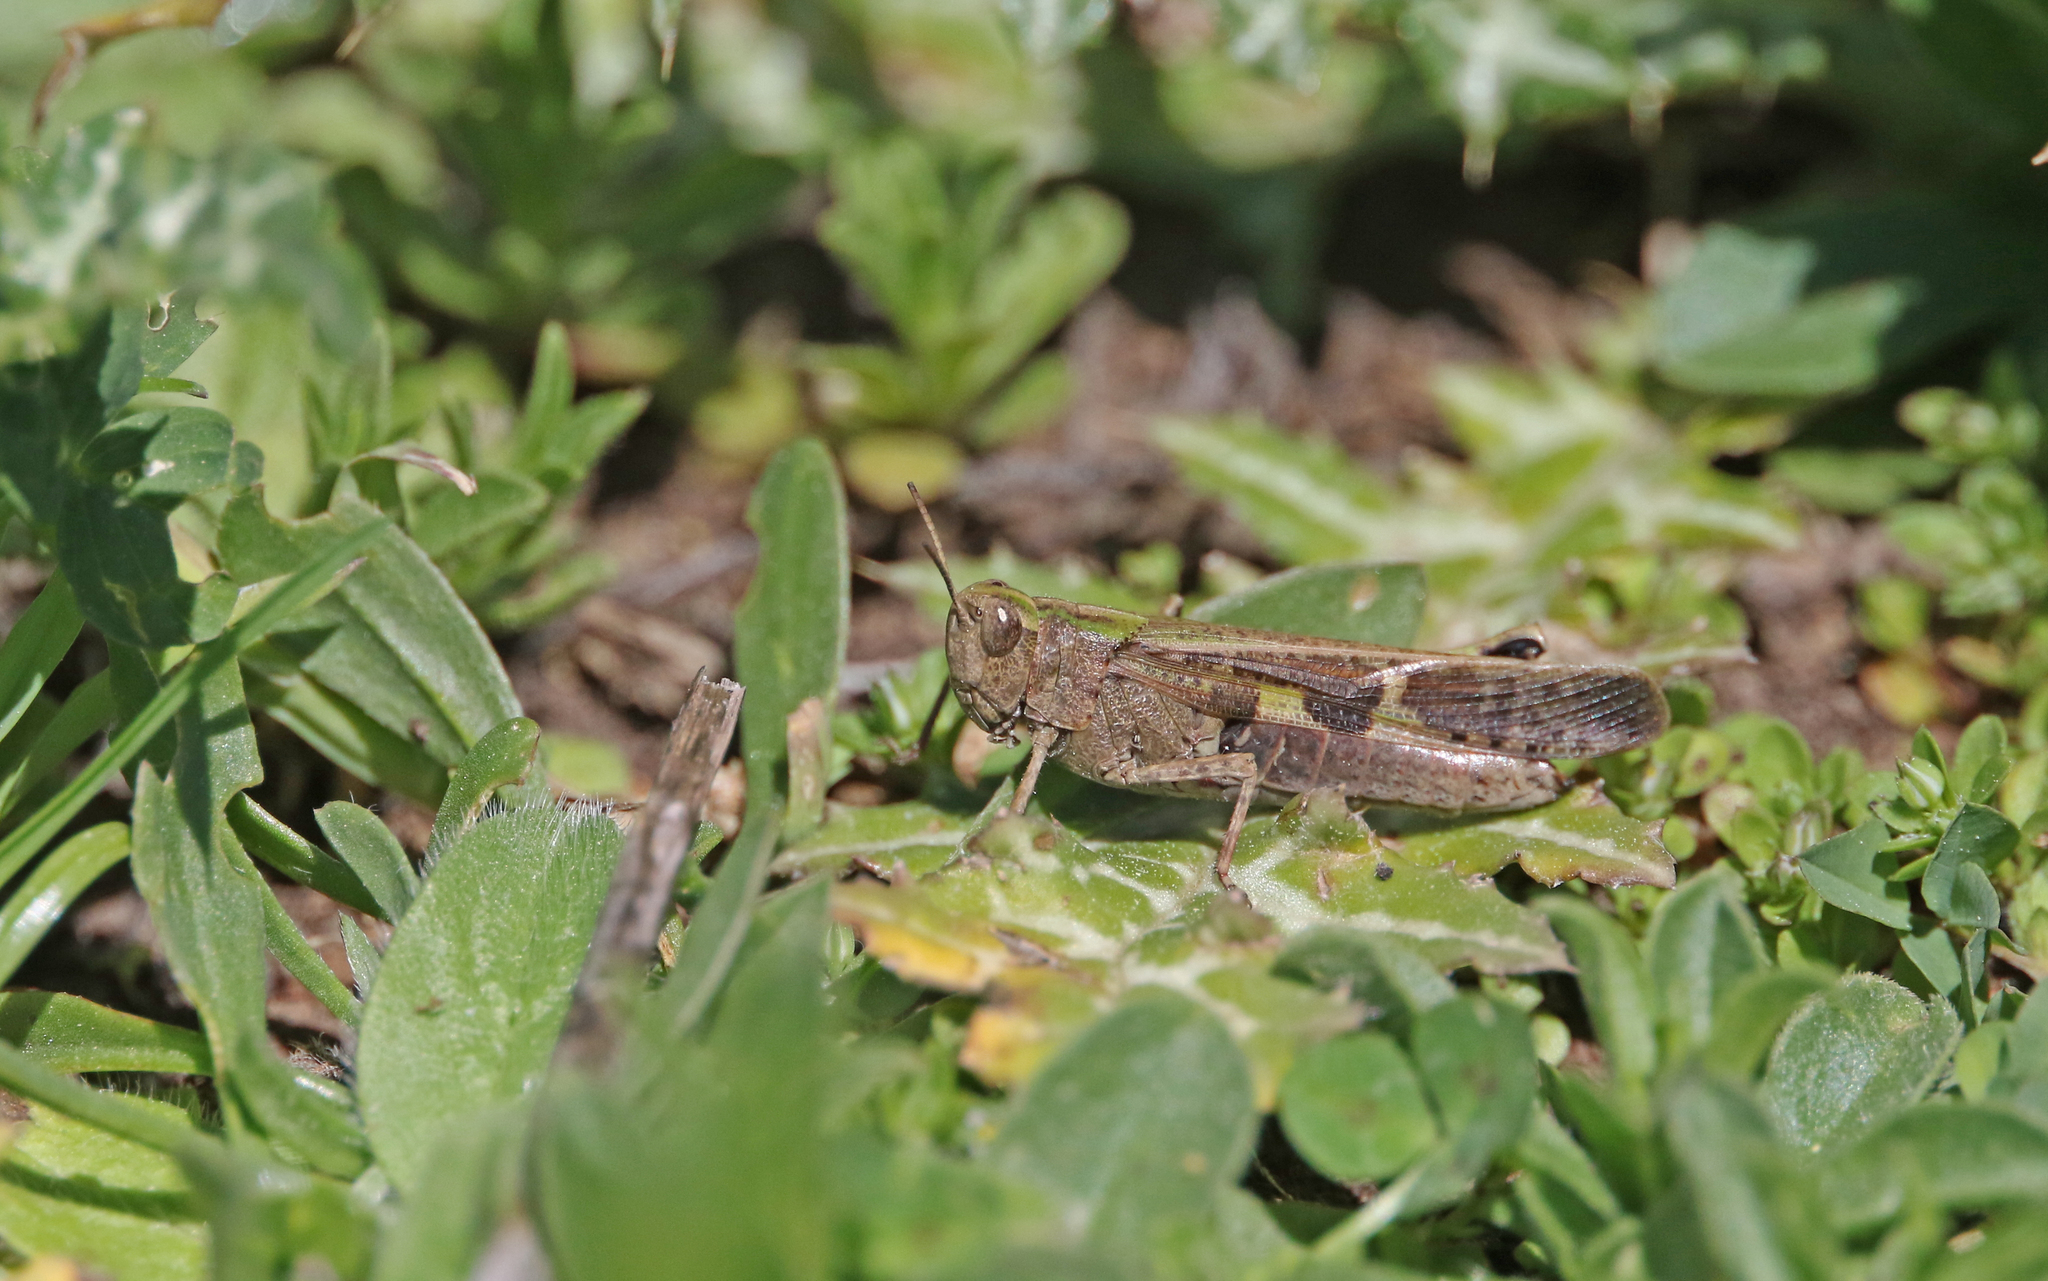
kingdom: Animalia
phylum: Arthropoda
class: Insecta
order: Orthoptera
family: Acrididae
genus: Aiolopus
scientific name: Aiolopus strepens
